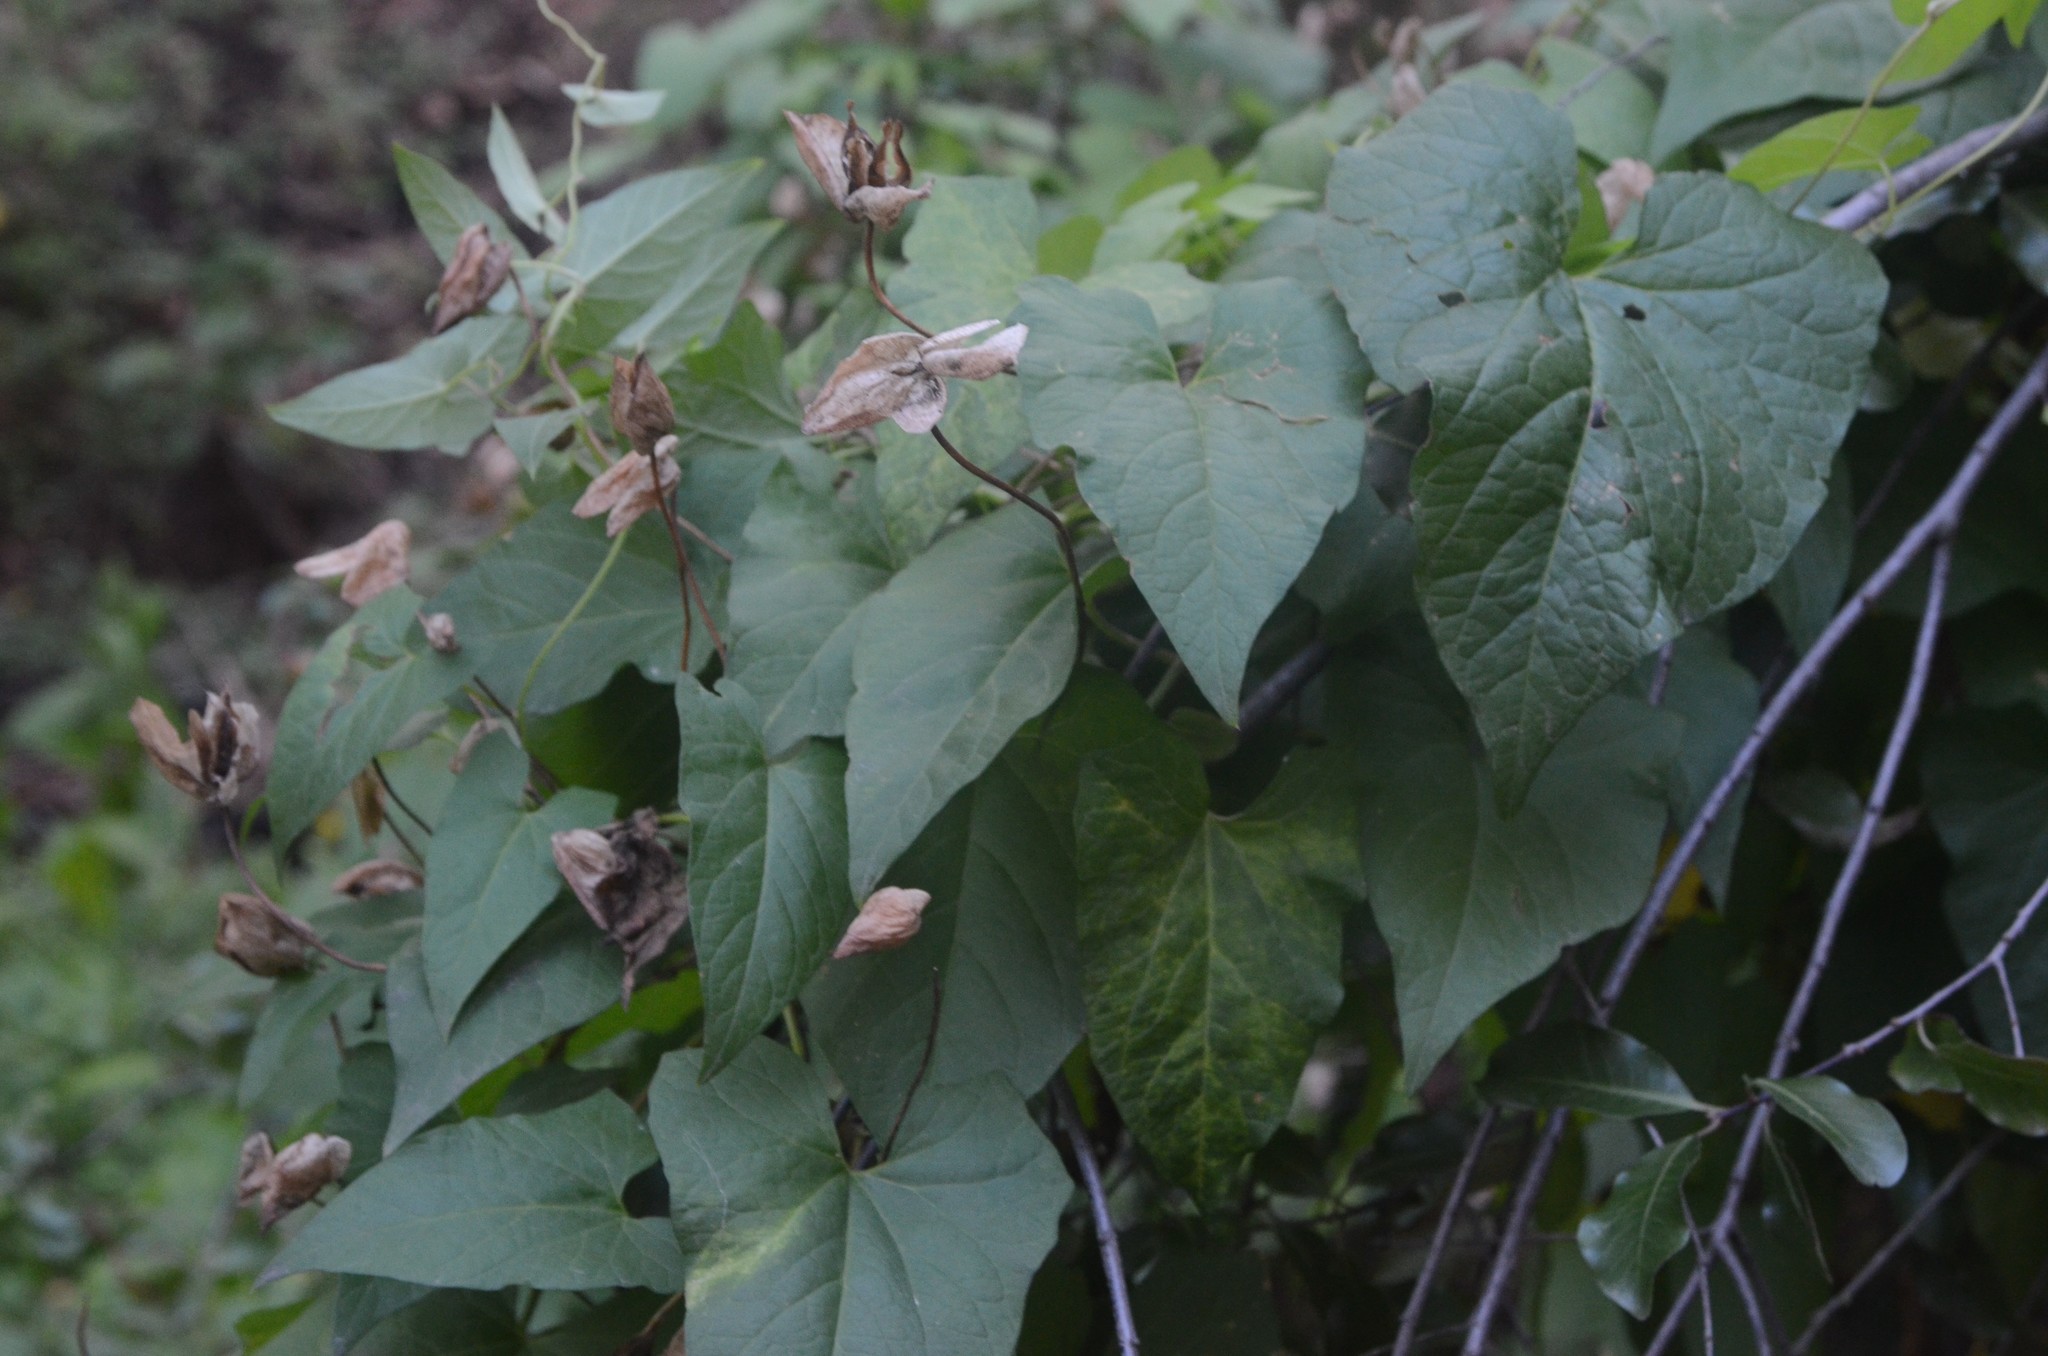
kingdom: Plantae
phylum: Tracheophyta
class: Magnoliopsida
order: Solanales
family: Convolvulaceae
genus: Calystegia
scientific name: Calystegia sepium
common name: Hedge bindweed
